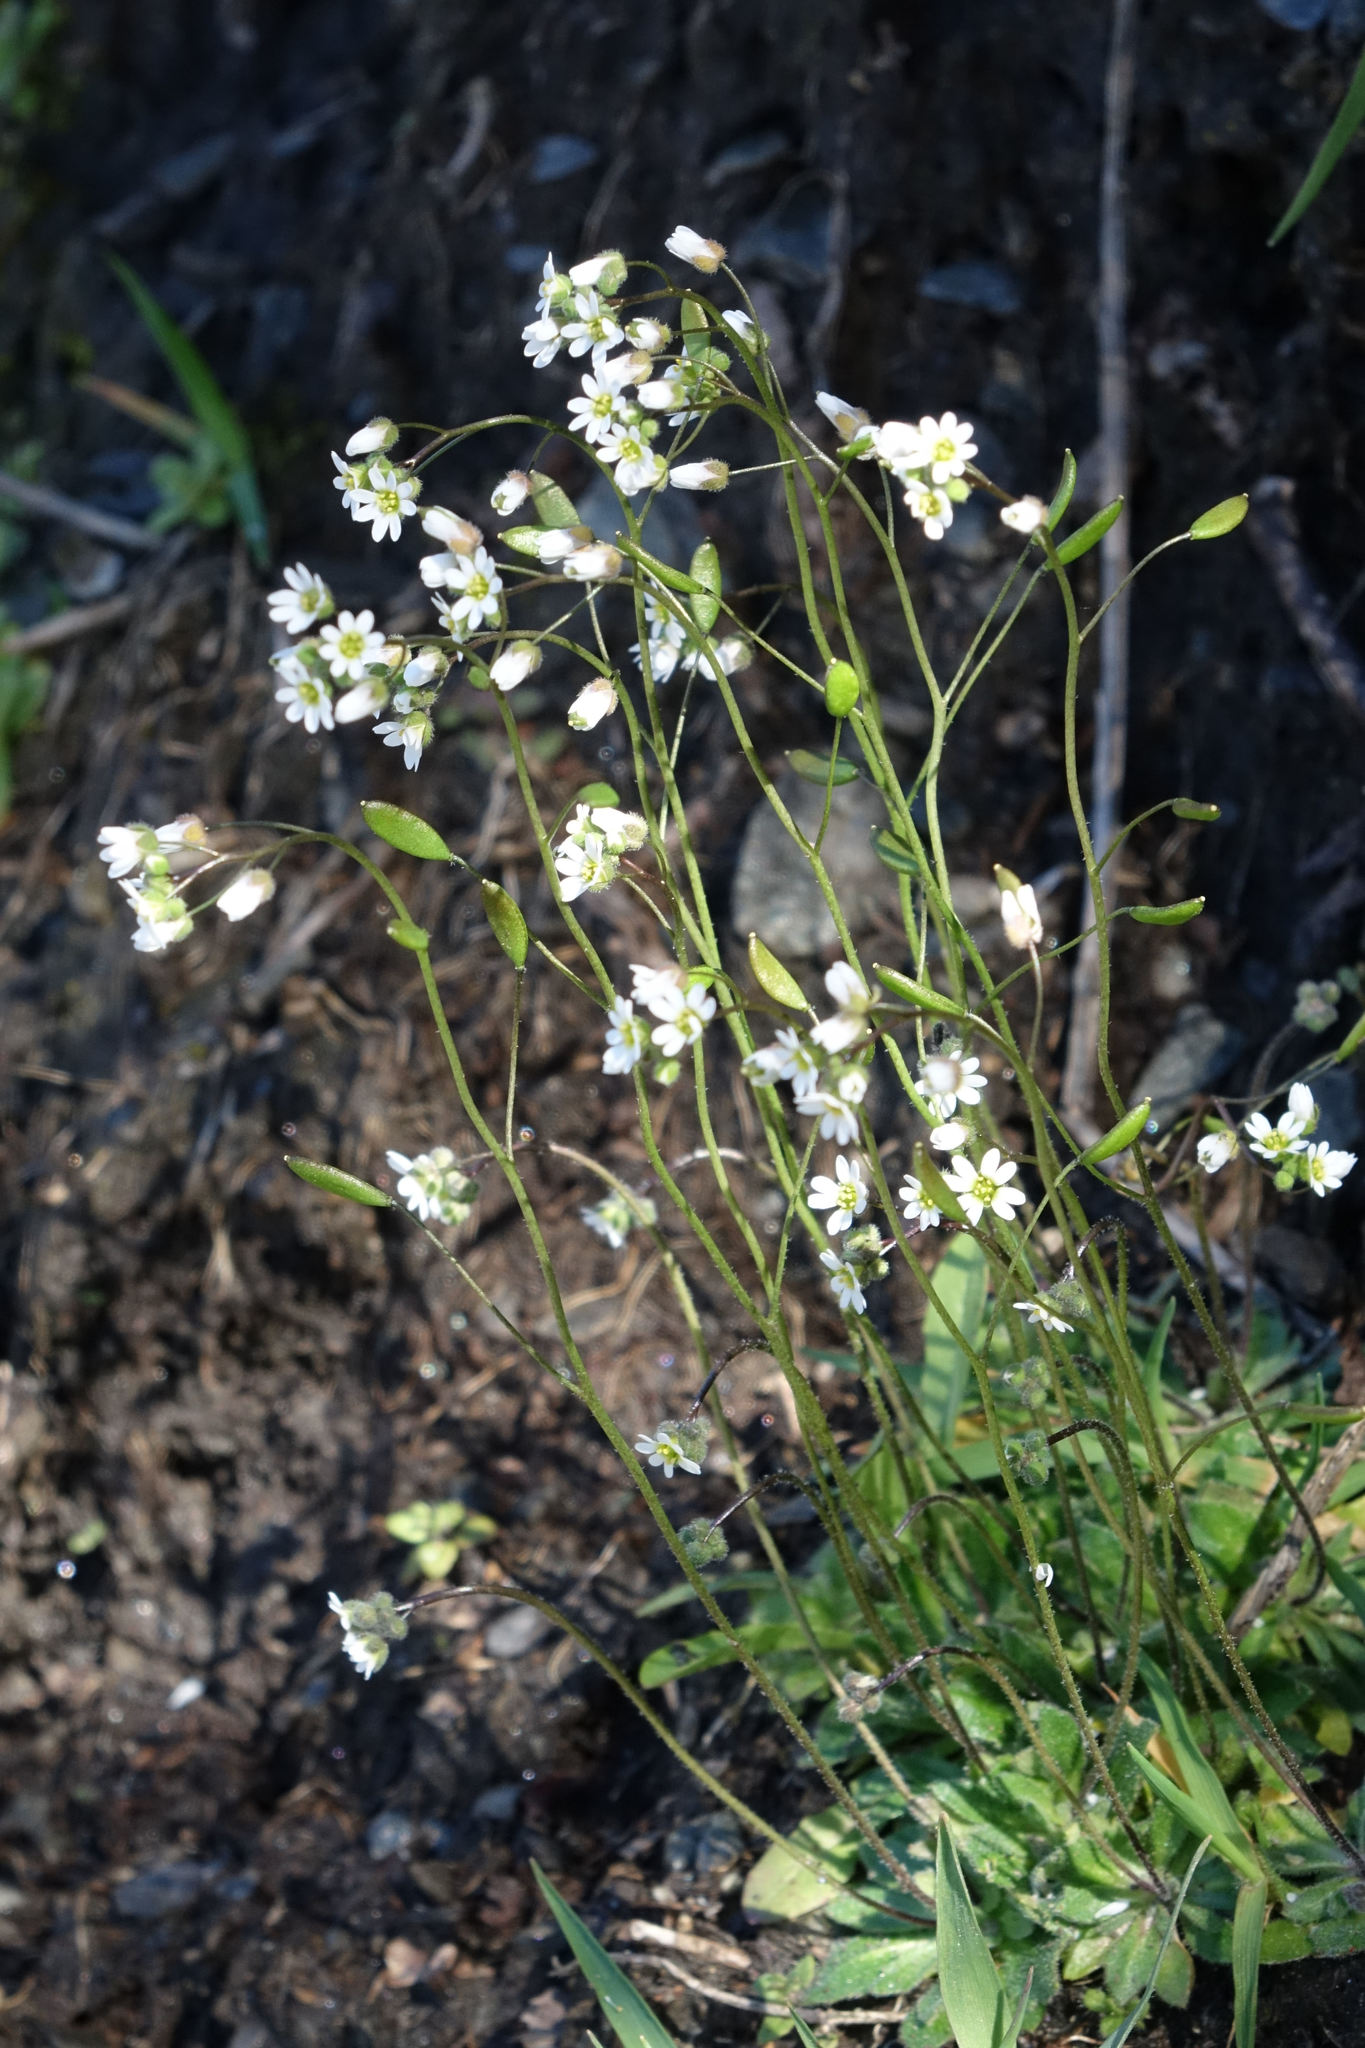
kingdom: Plantae
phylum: Tracheophyta
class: Magnoliopsida
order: Brassicales
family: Brassicaceae
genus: Draba
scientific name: Draba verna
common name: Spring draba
